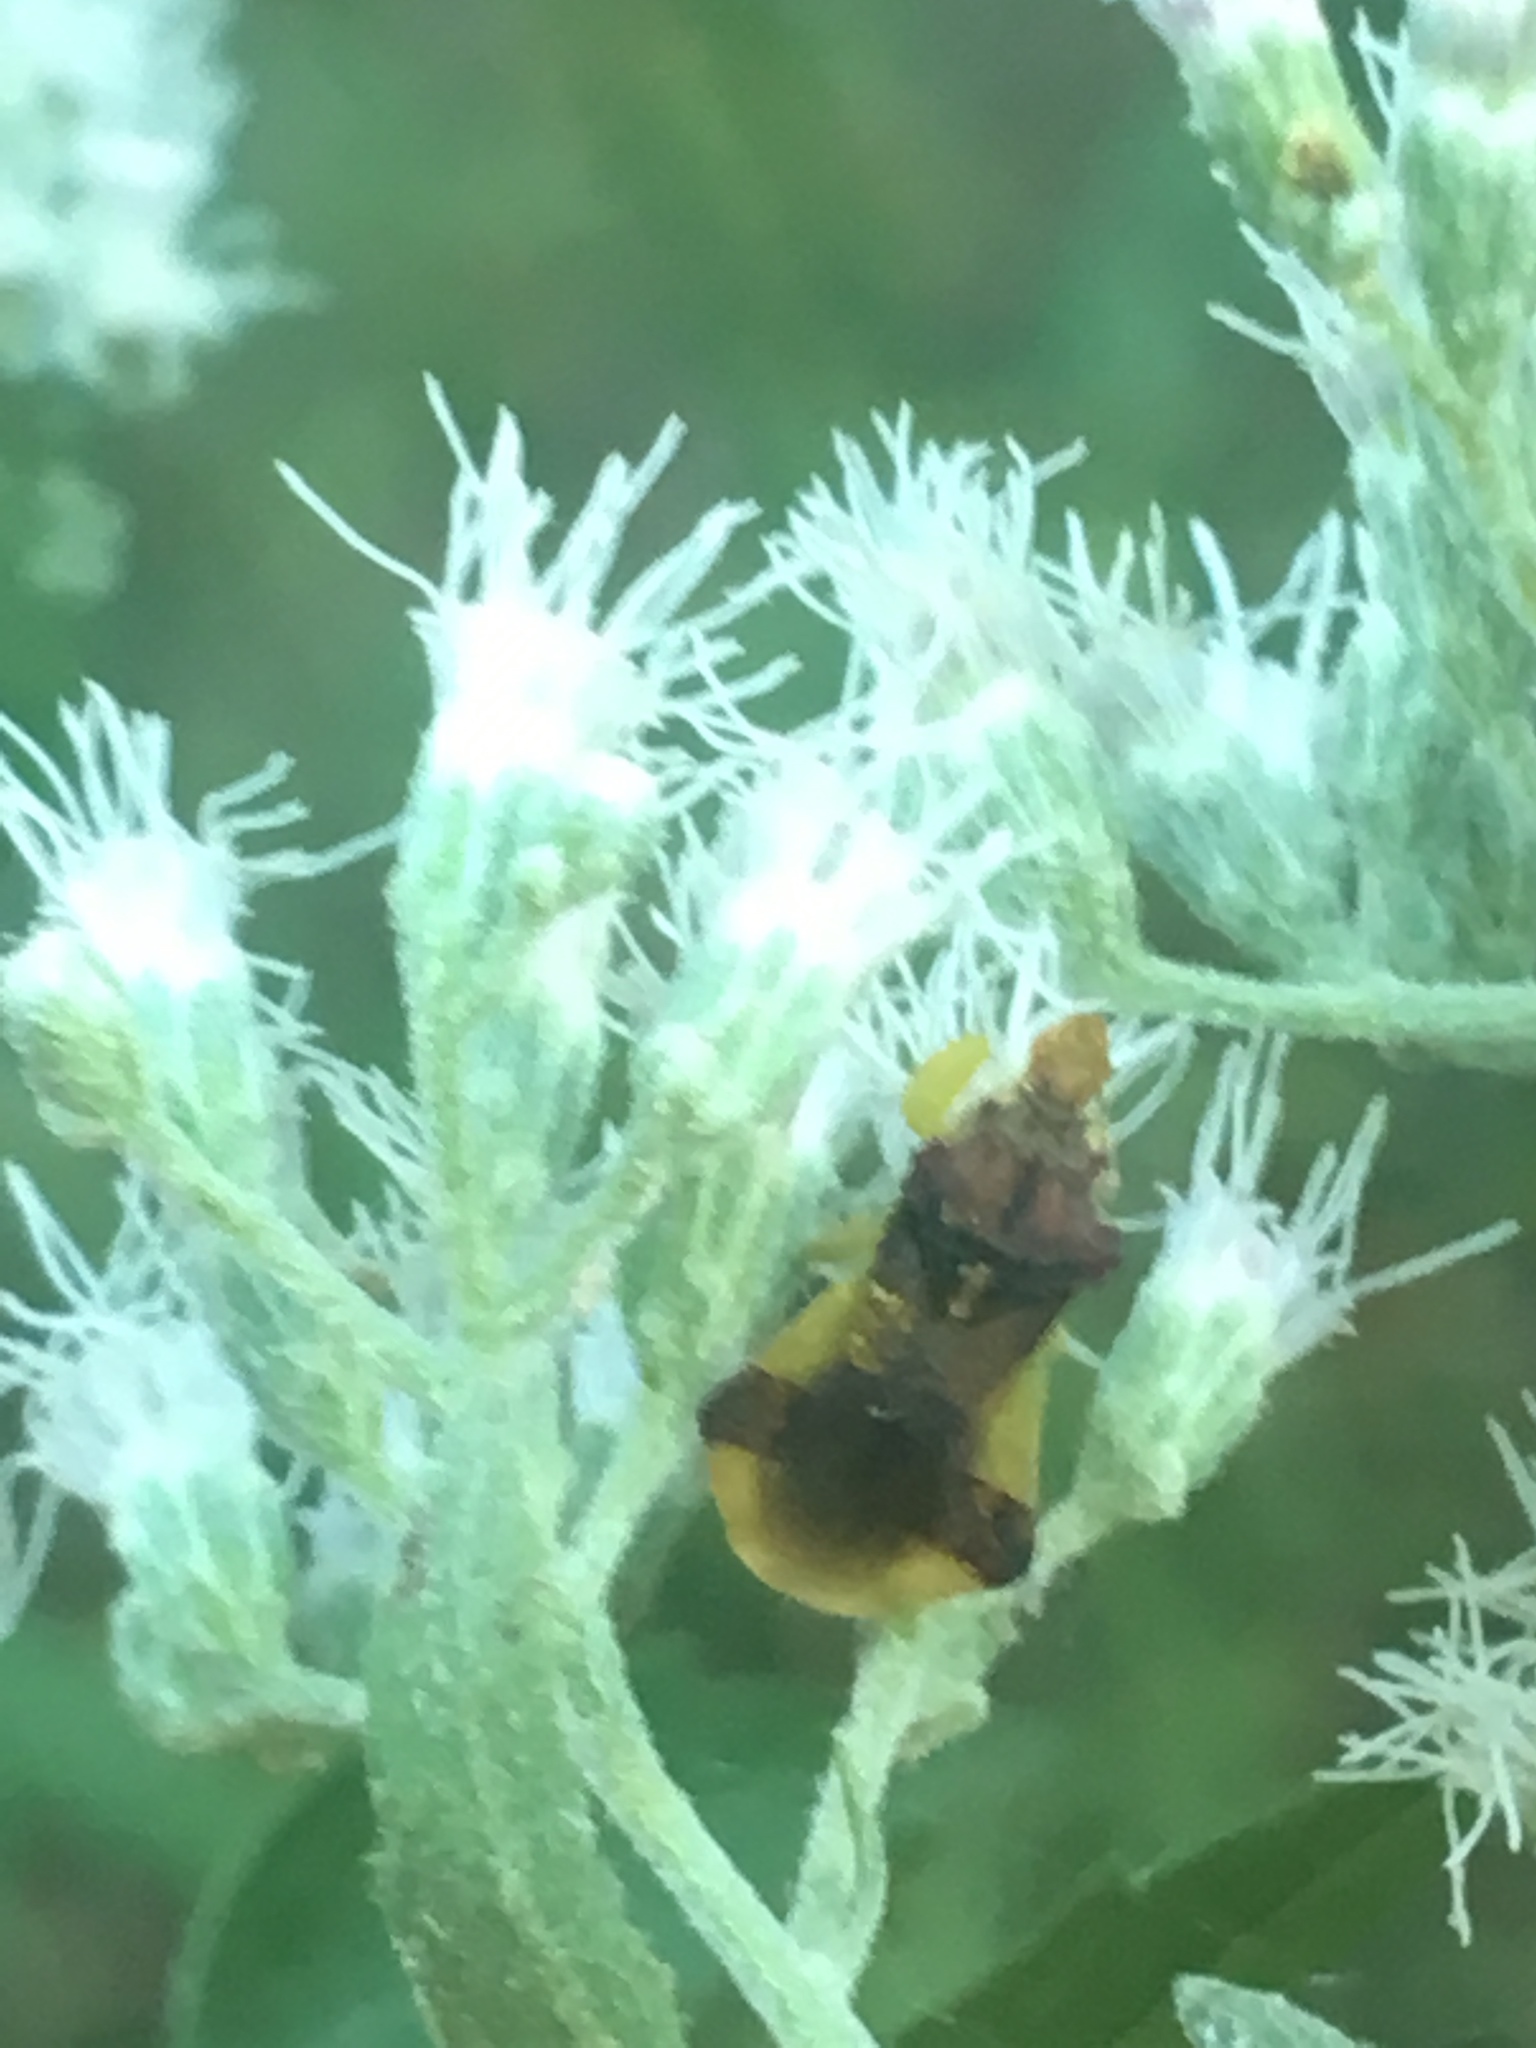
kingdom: Animalia
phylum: Arthropoda
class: Insecta
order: Hemiptera
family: Reduviidae
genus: Phymata
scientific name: Phymata pennsylvanica
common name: Pennsylvania ambush bug
